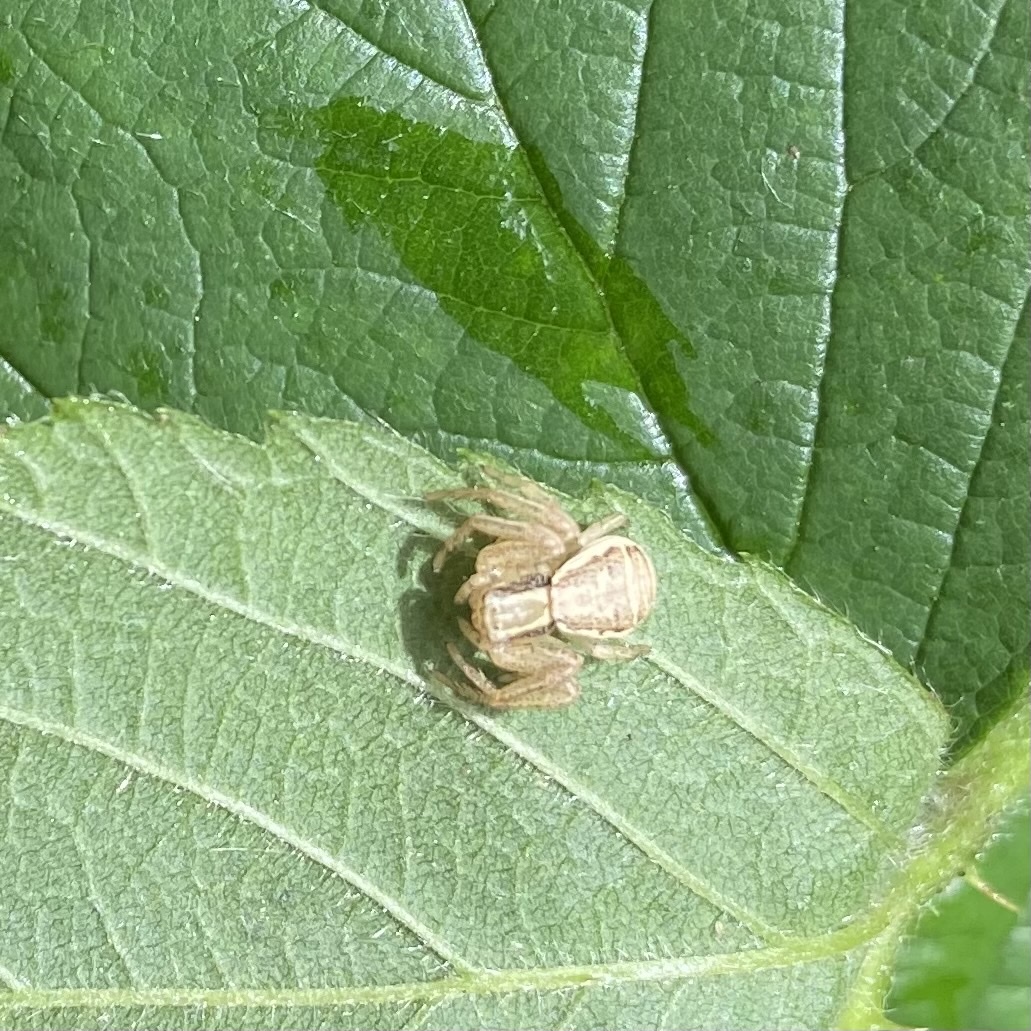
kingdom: Animalia
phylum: Arthropoda
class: Arachnida
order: Araneae
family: Thomisidae
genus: Xysticus
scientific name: Xysticus ulmi
